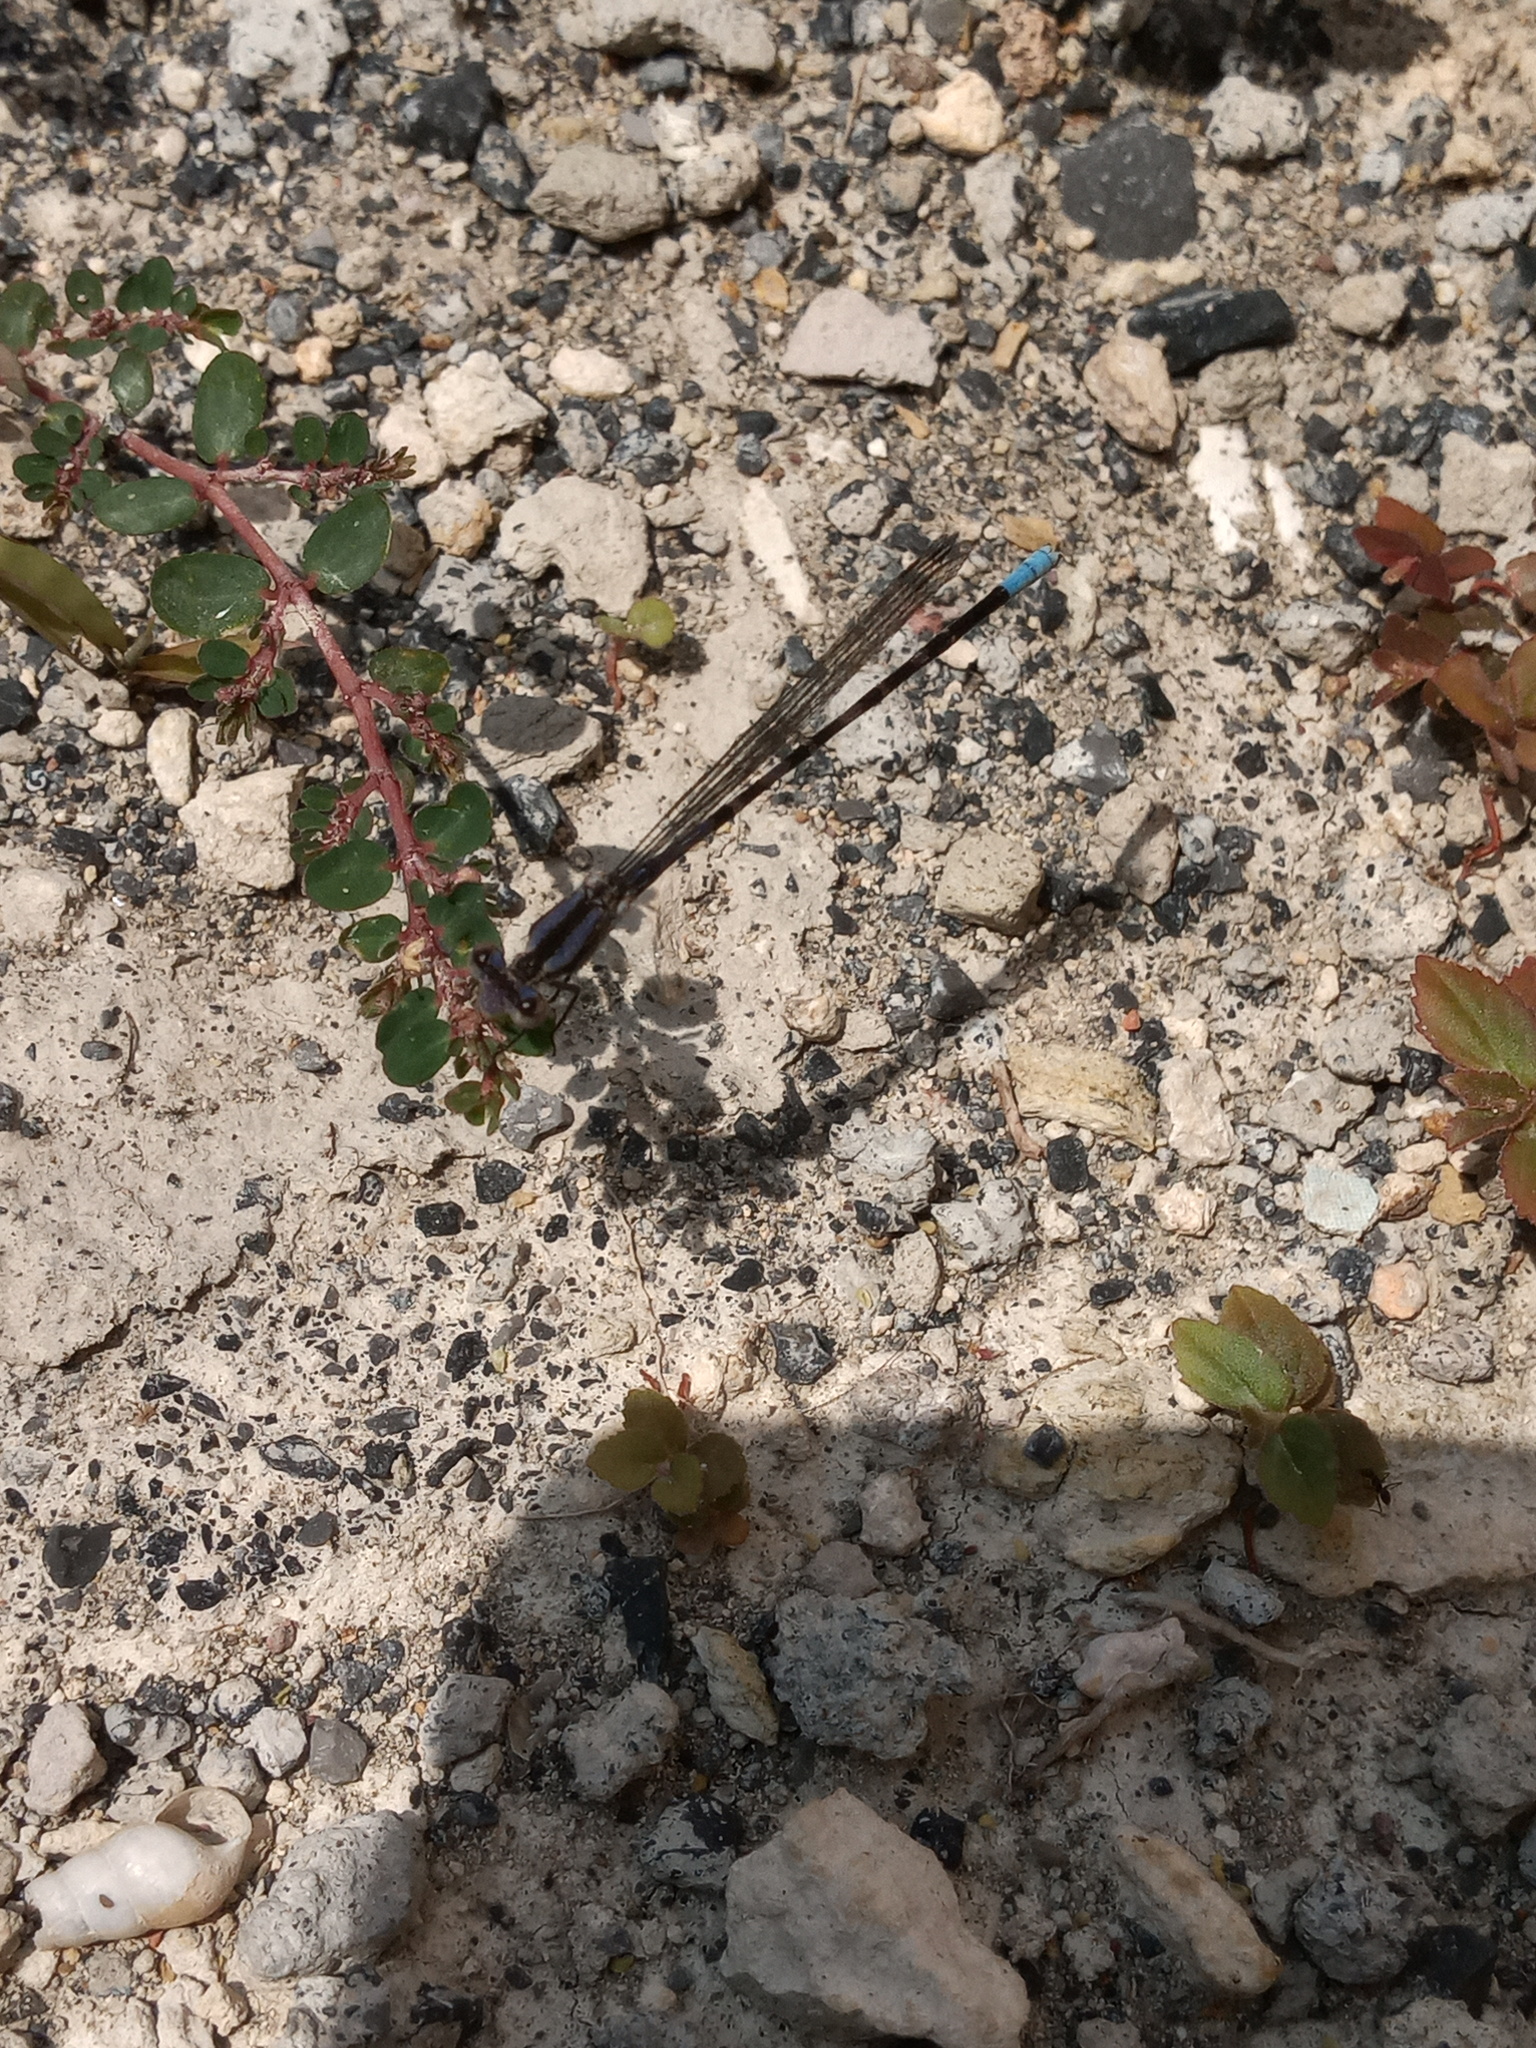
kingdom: Animalia
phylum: Arthropoda
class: Insecta
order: Odonata
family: Coenagrionidae
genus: Argia
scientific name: Argia immunda
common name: Kiowa dancer
